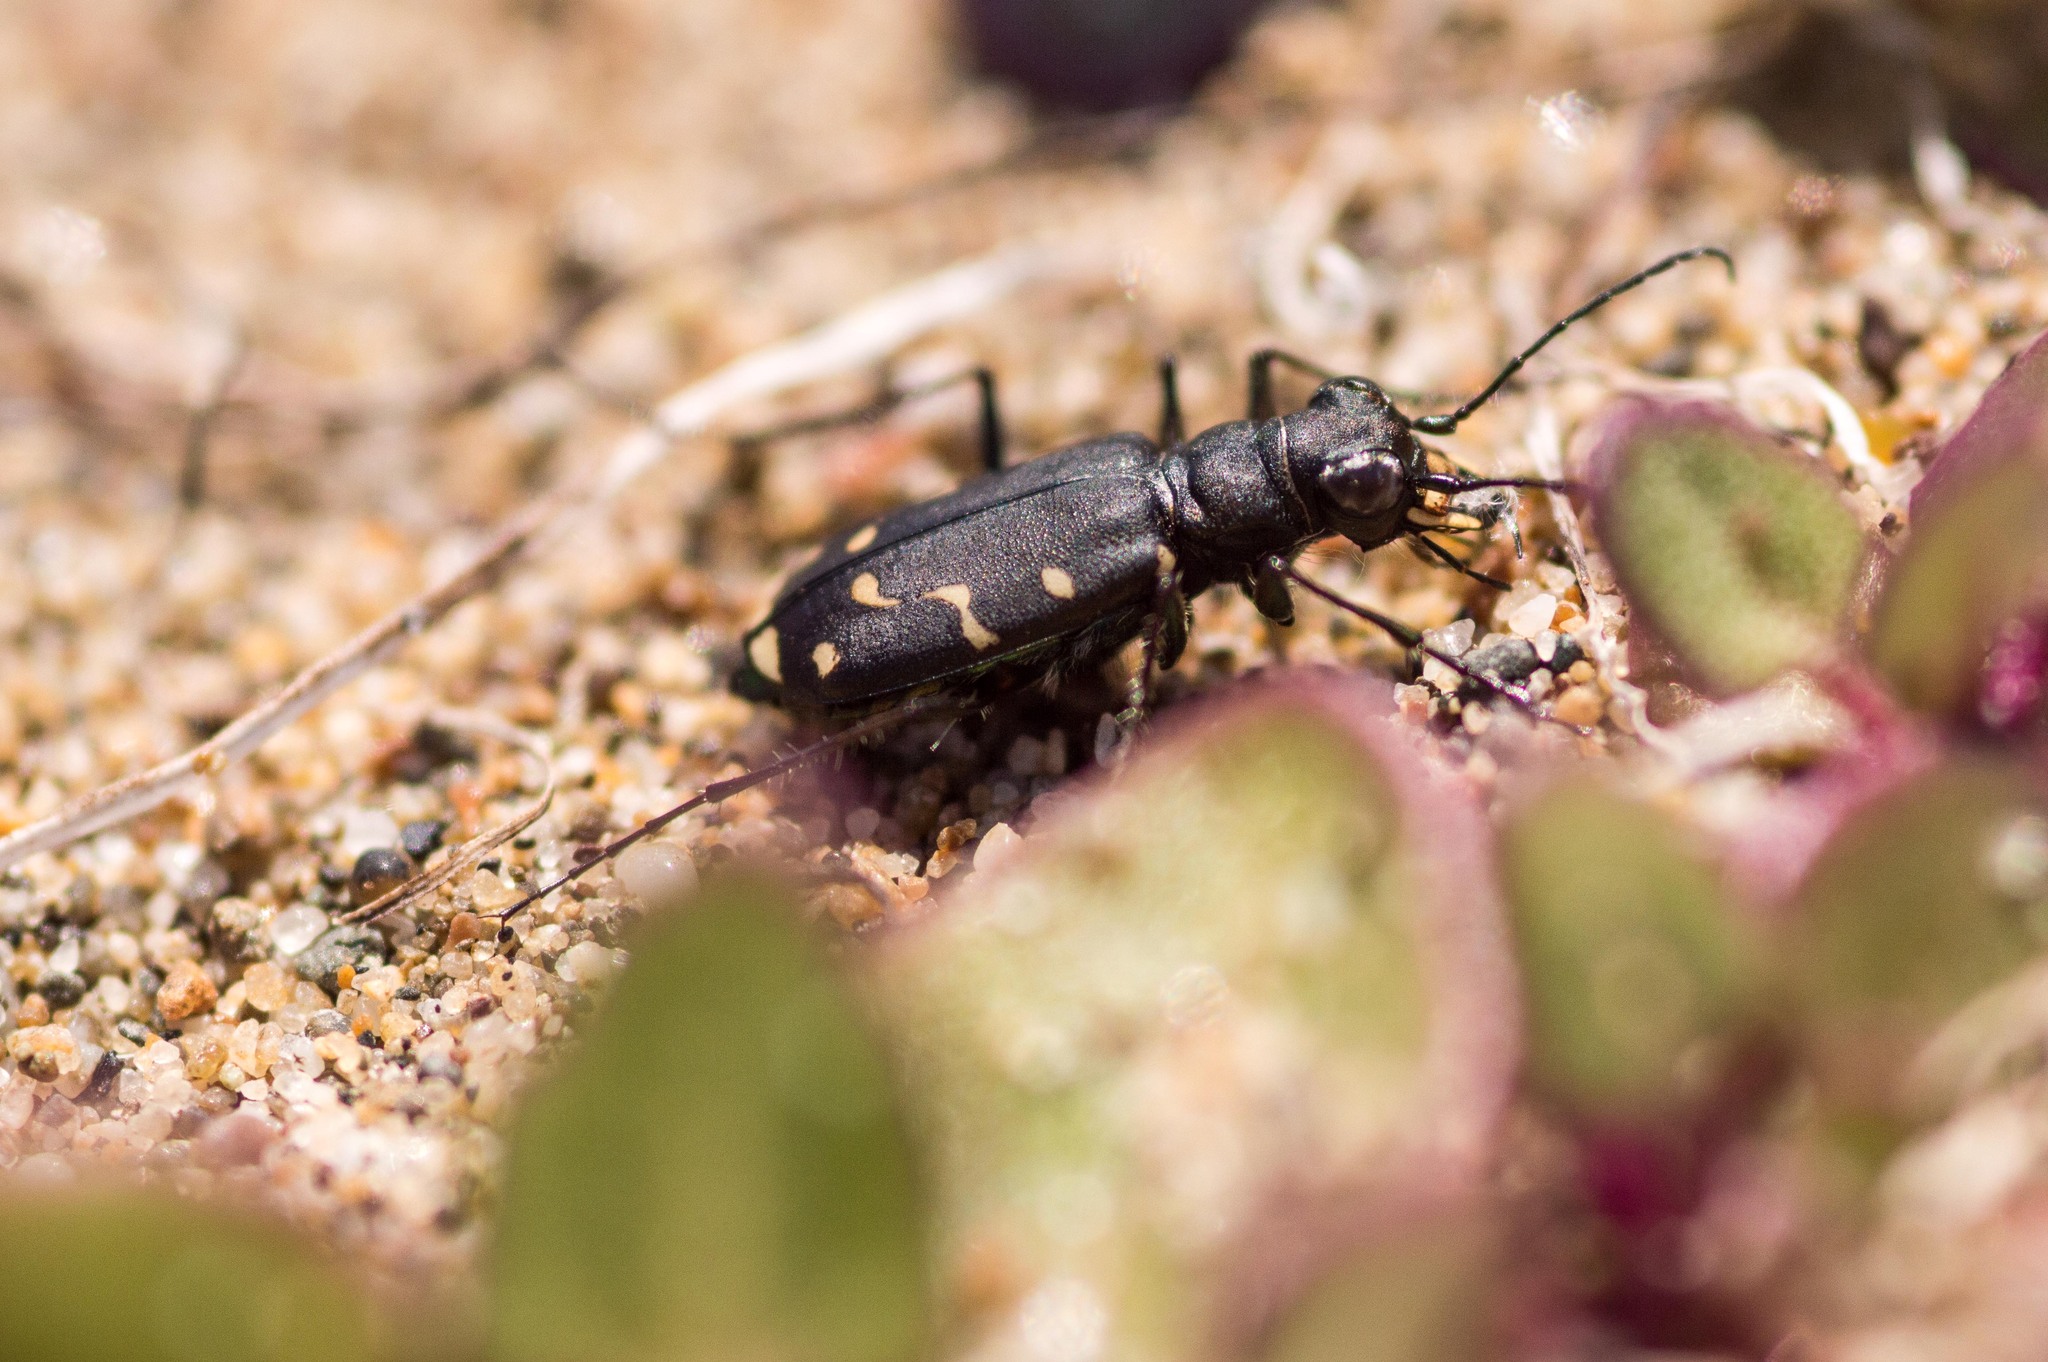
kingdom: Animalia
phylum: Arthropoda
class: Insecta
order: Coleoptera
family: Carabidae
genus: Cicindela
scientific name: Cicindela oregona
